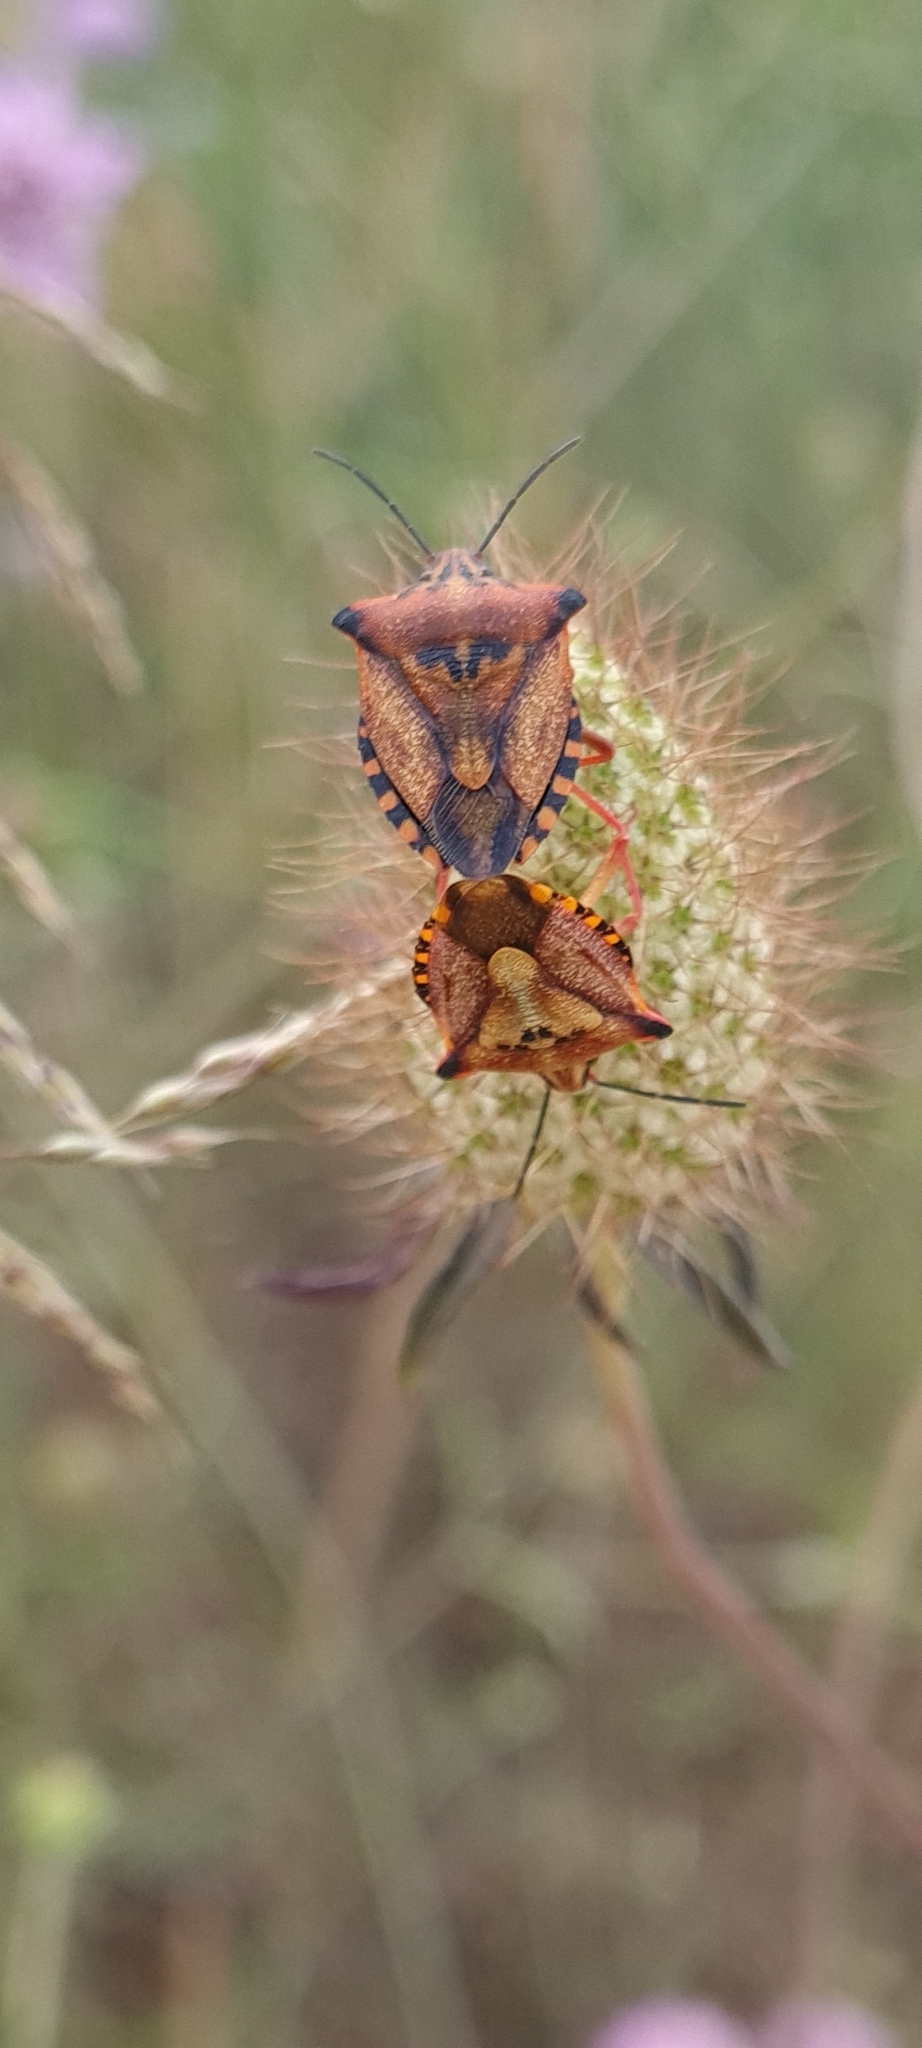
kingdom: Animalia
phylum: Arthropoda
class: Insecta
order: Hemiptera
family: Pentatomidae
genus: Carpocoris
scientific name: Carpocoris mediterraneus
